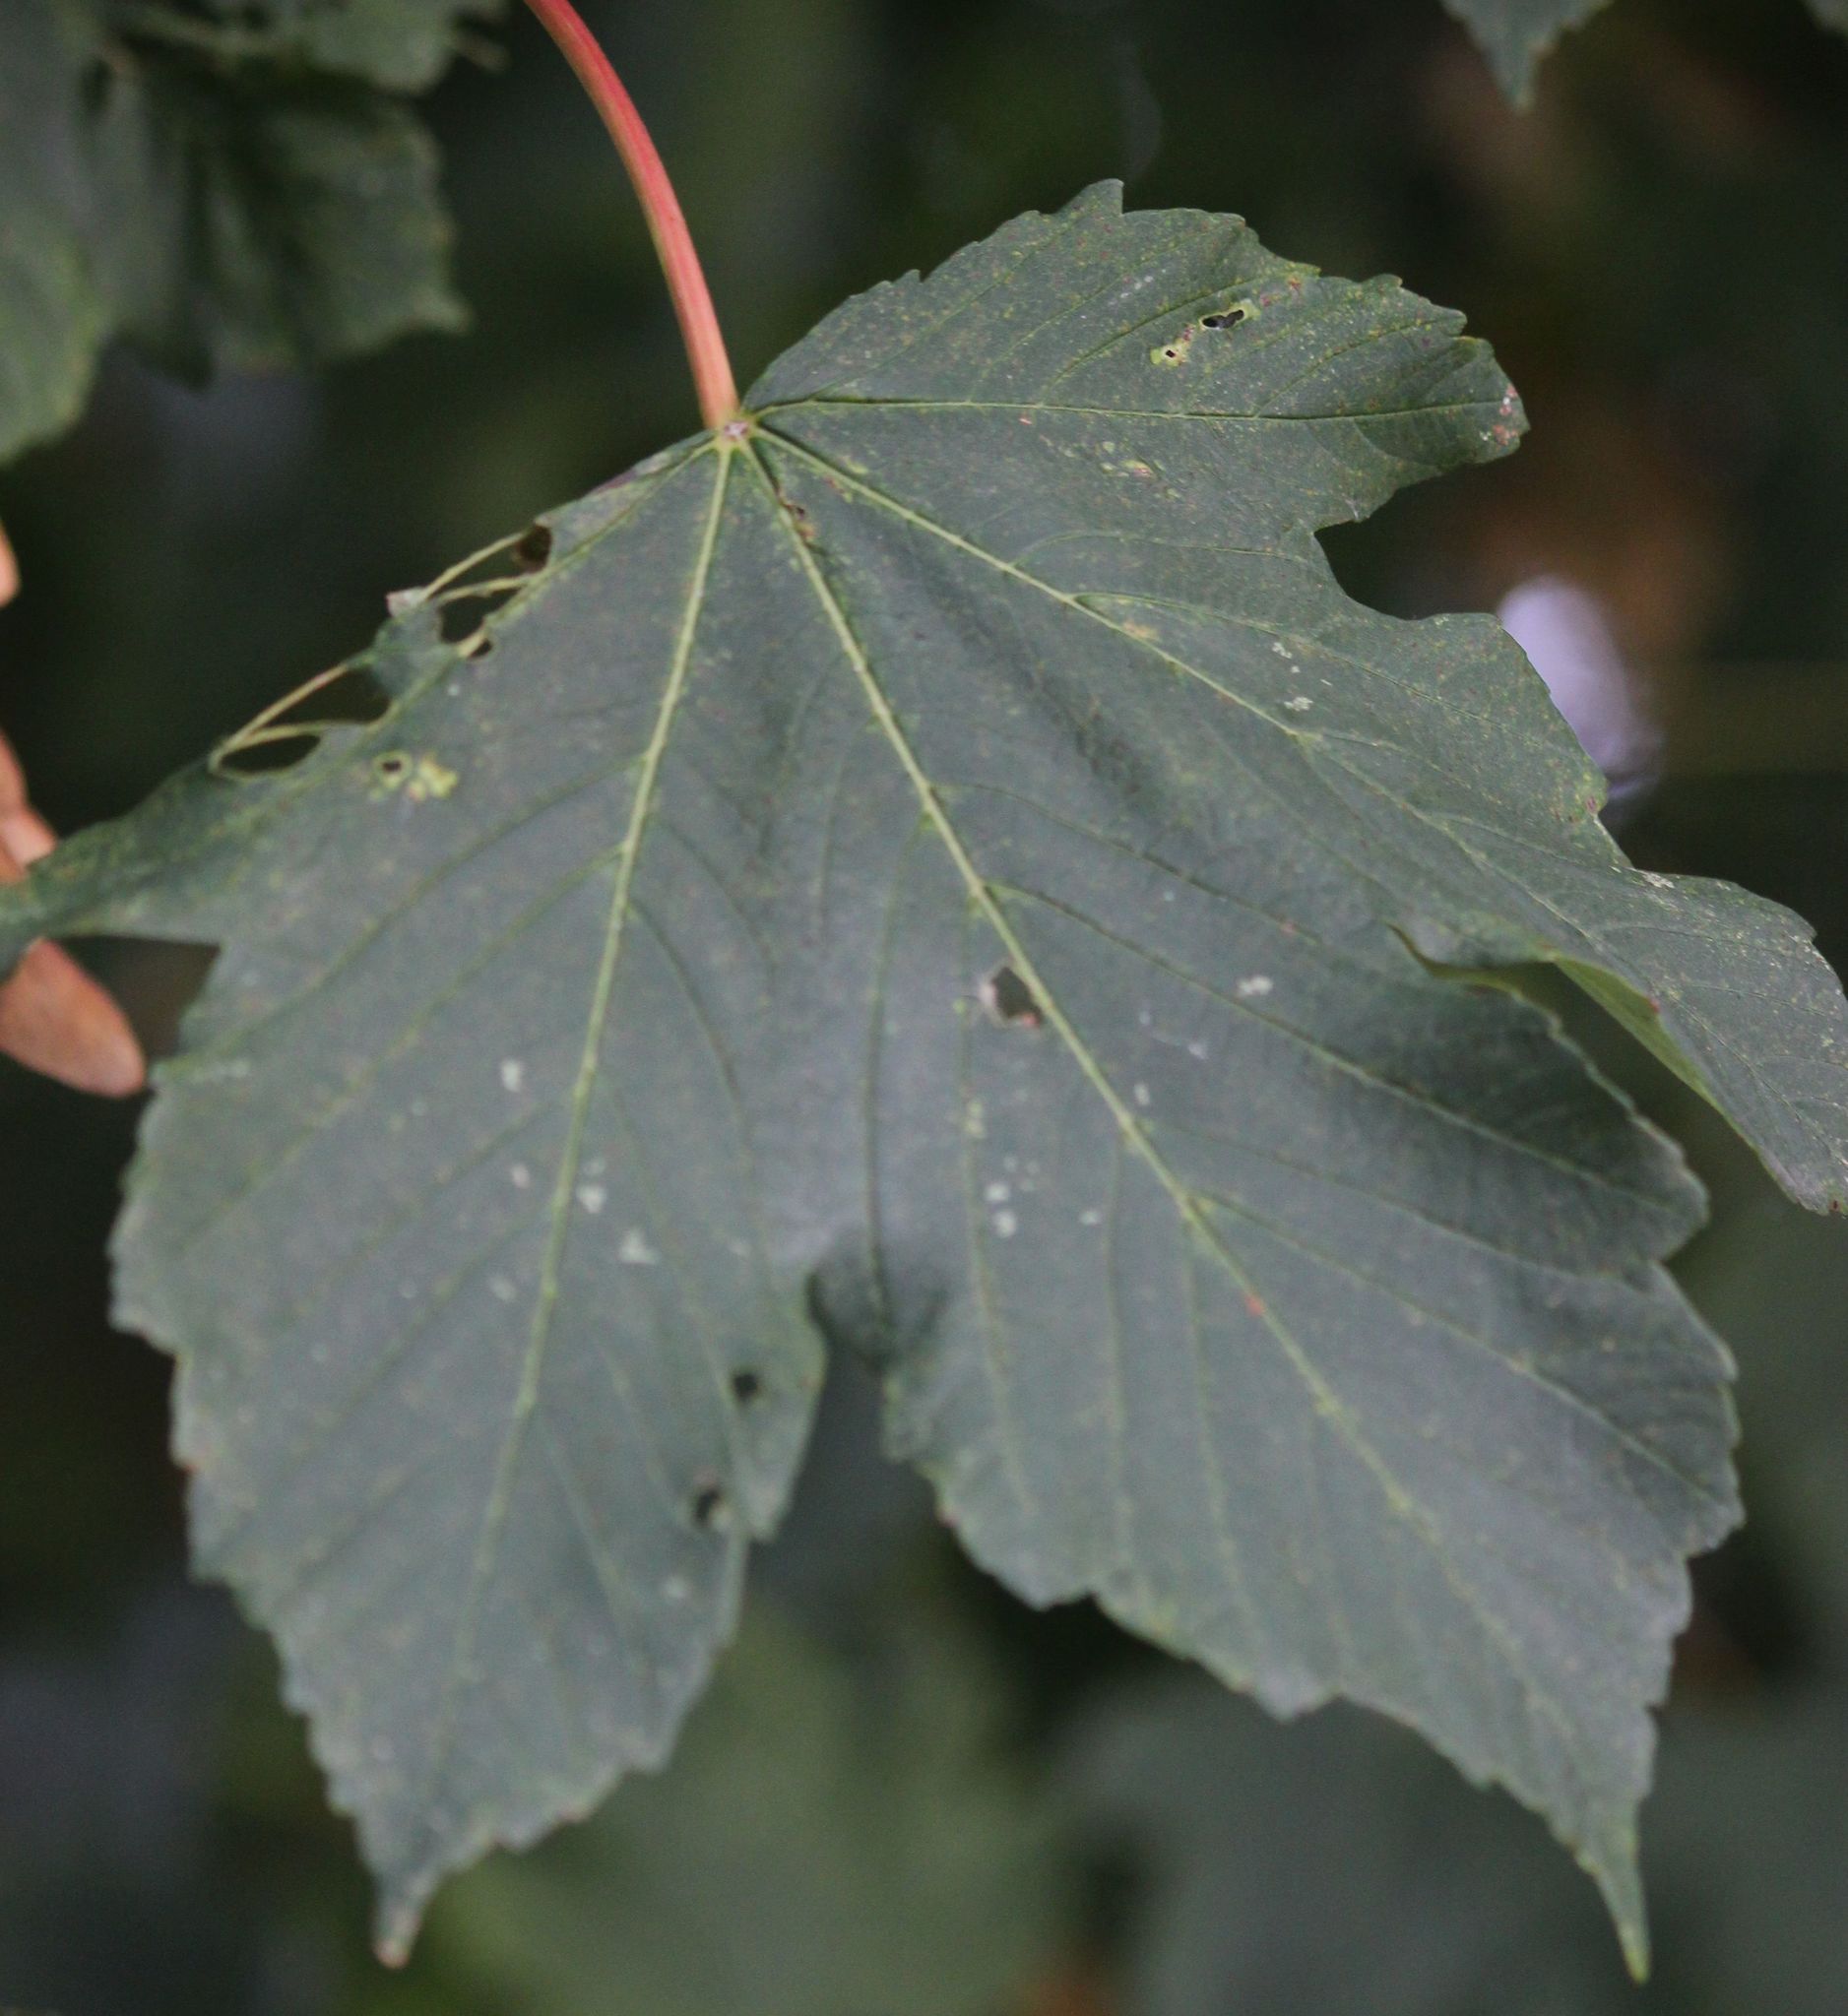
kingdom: Plantae
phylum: Tracheophyta
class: Magnoliopsida
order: Sapindales
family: Sapindaceae
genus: Acer
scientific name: Acer pseudoplatanus
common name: Sycamore
